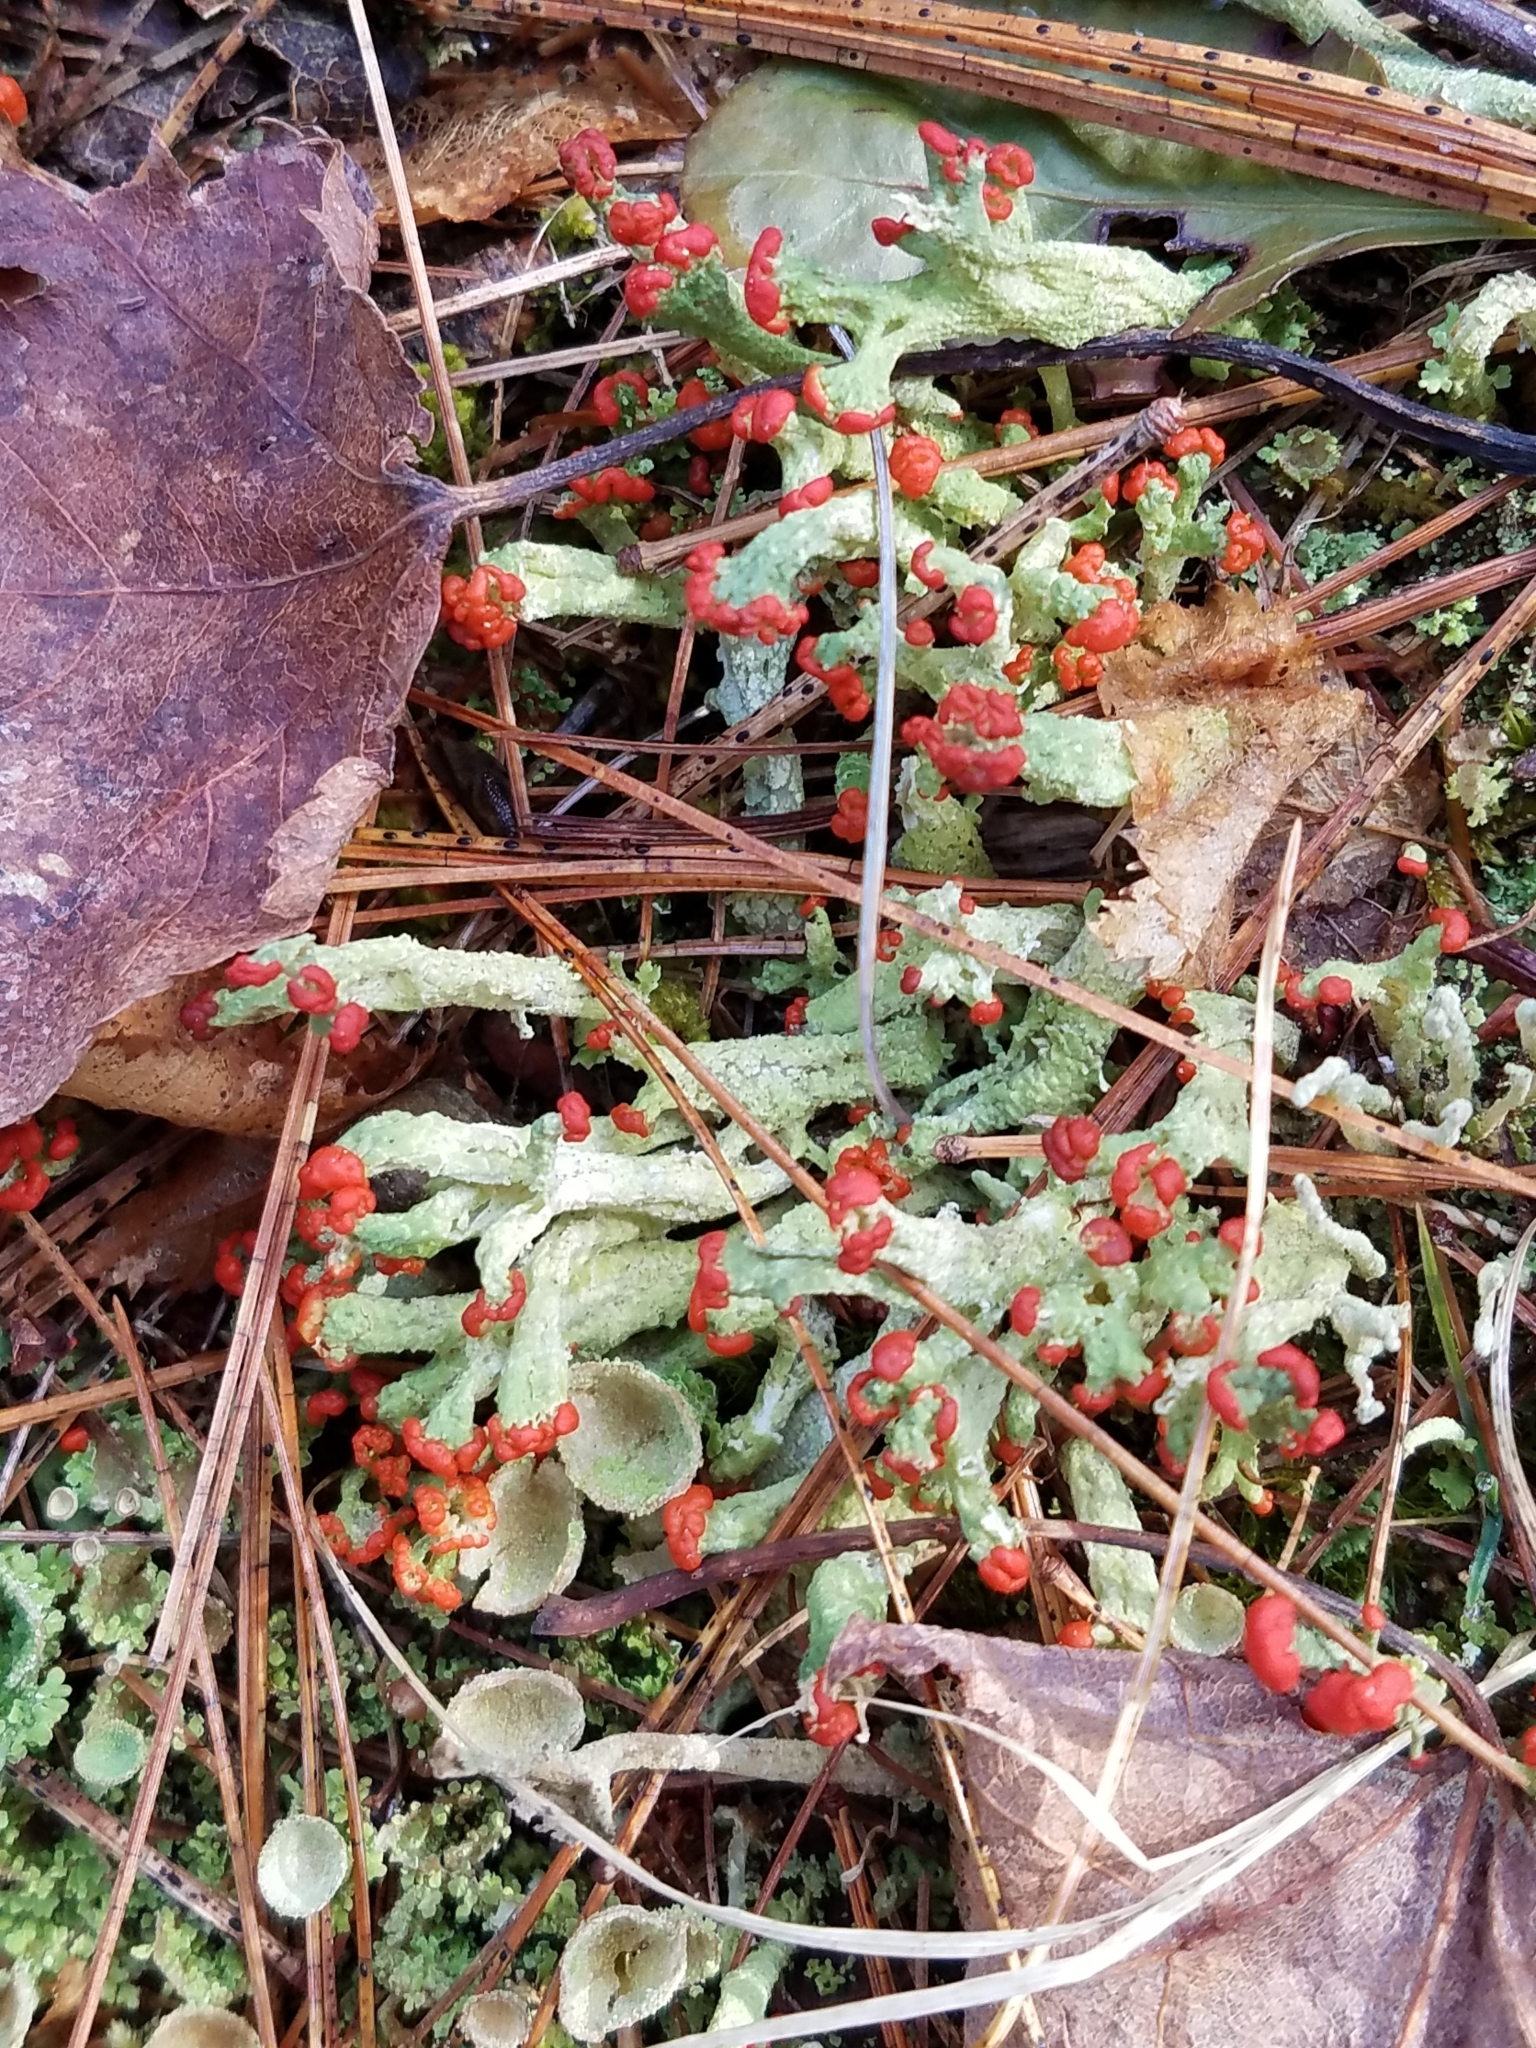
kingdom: Fungi
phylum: Ascomycota
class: Lecanoromycetes
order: Lecanorales
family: Cladoniaceae
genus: Cladonia
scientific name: Cladonia cristatella
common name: British soldier lichen
